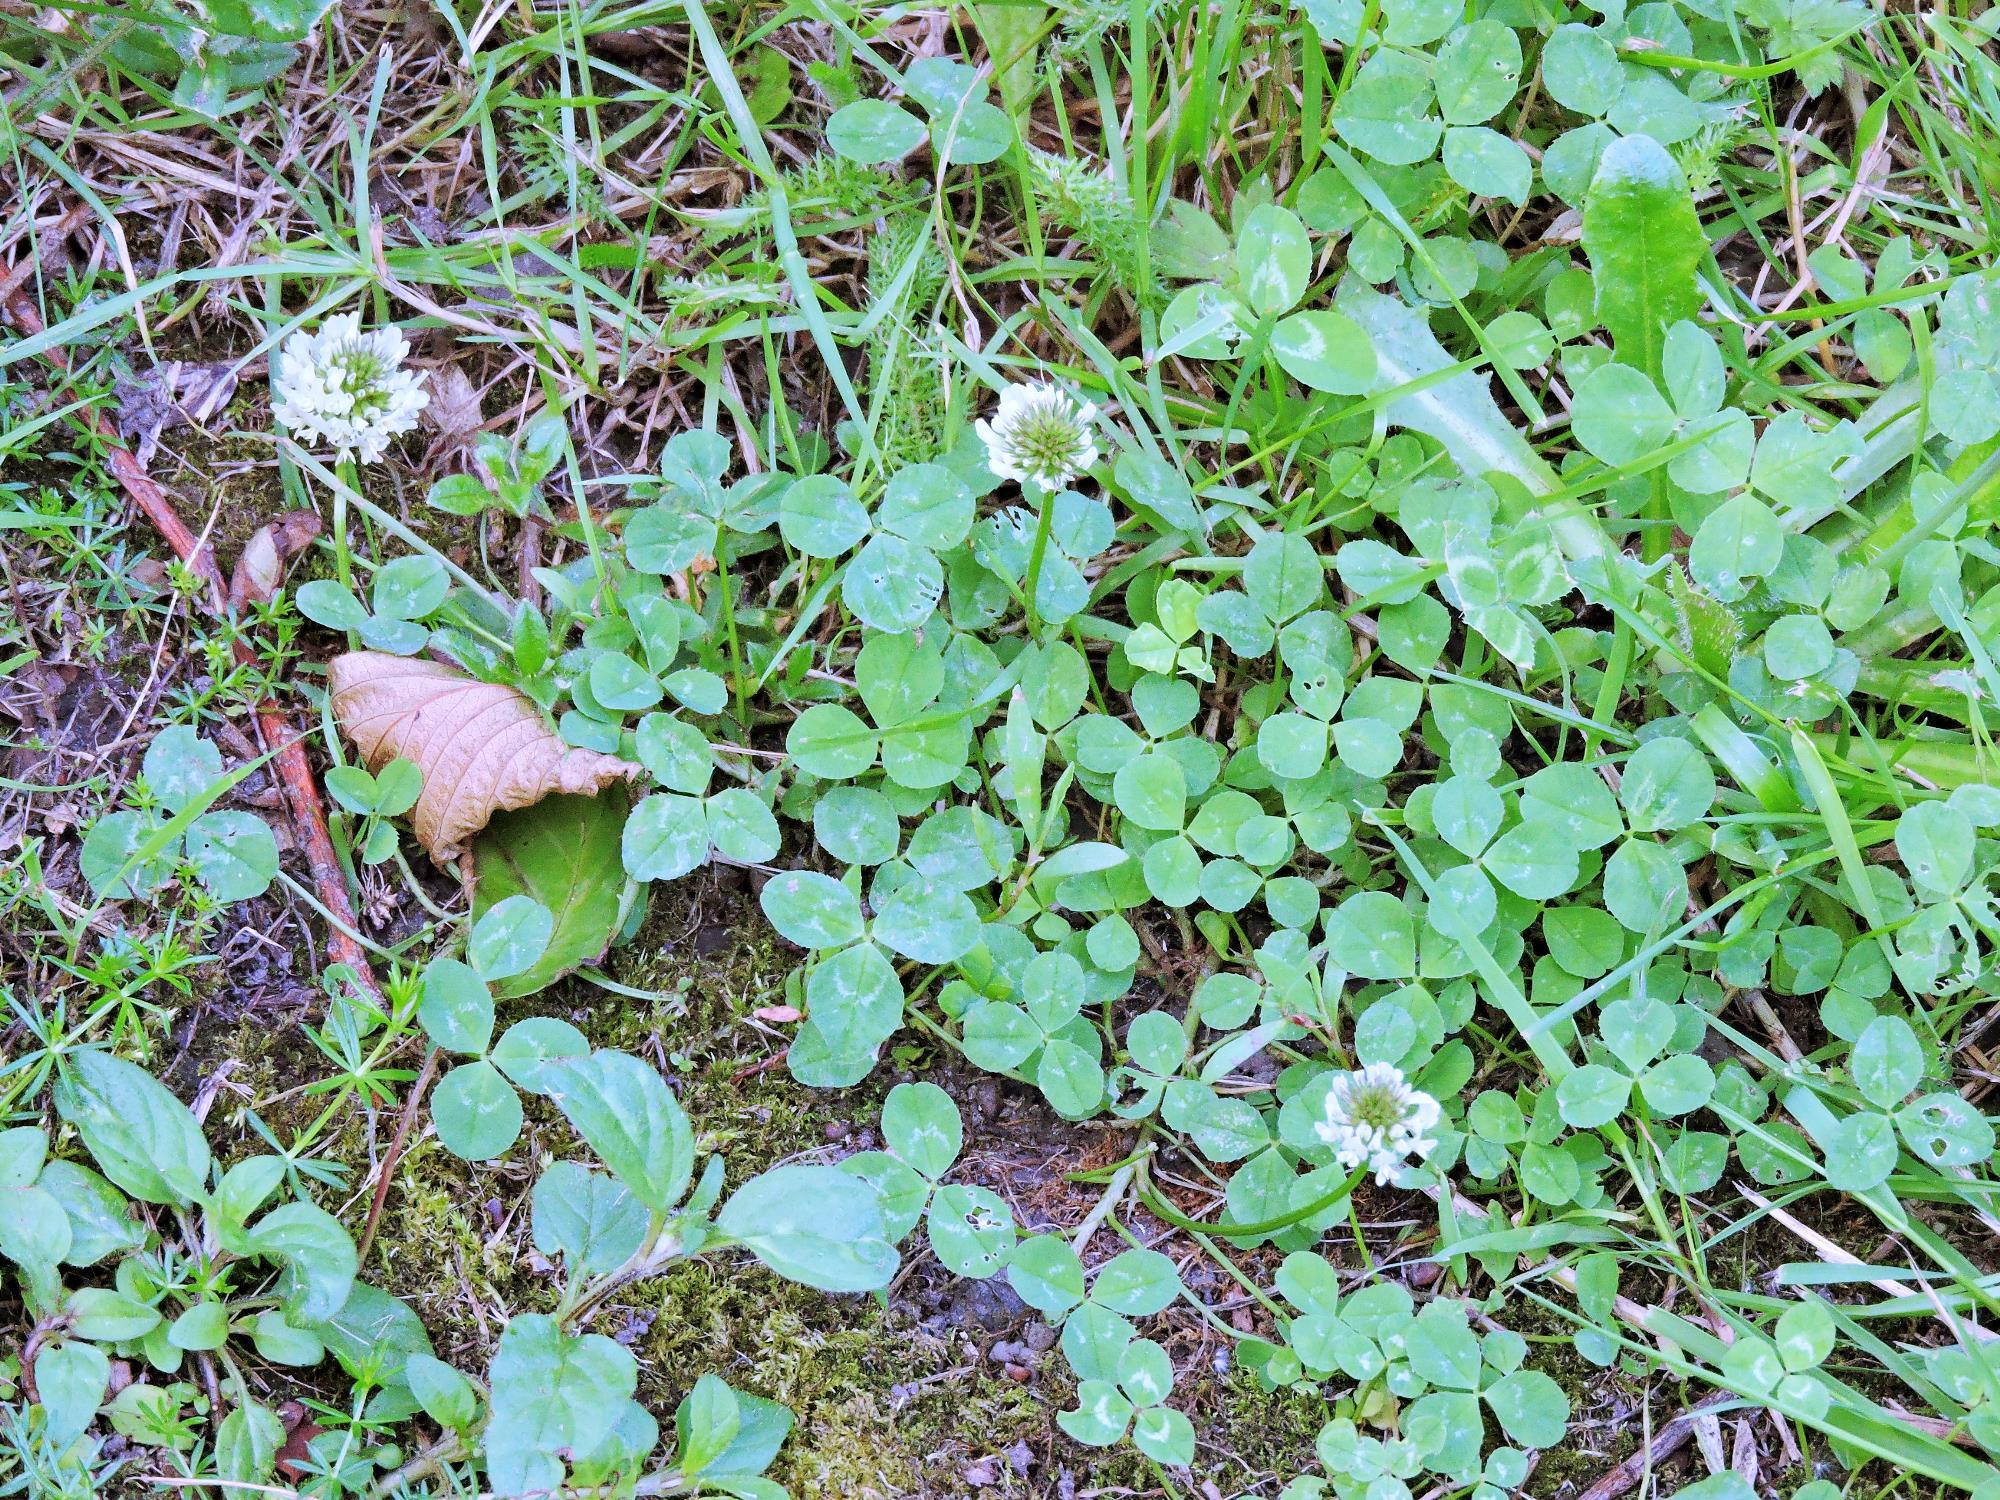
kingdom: Plantae
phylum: Tracheophyta
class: Magnoliopsida
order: Fabales
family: Fabaceae
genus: Trifolium
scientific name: Trifolium repens
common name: White clover
